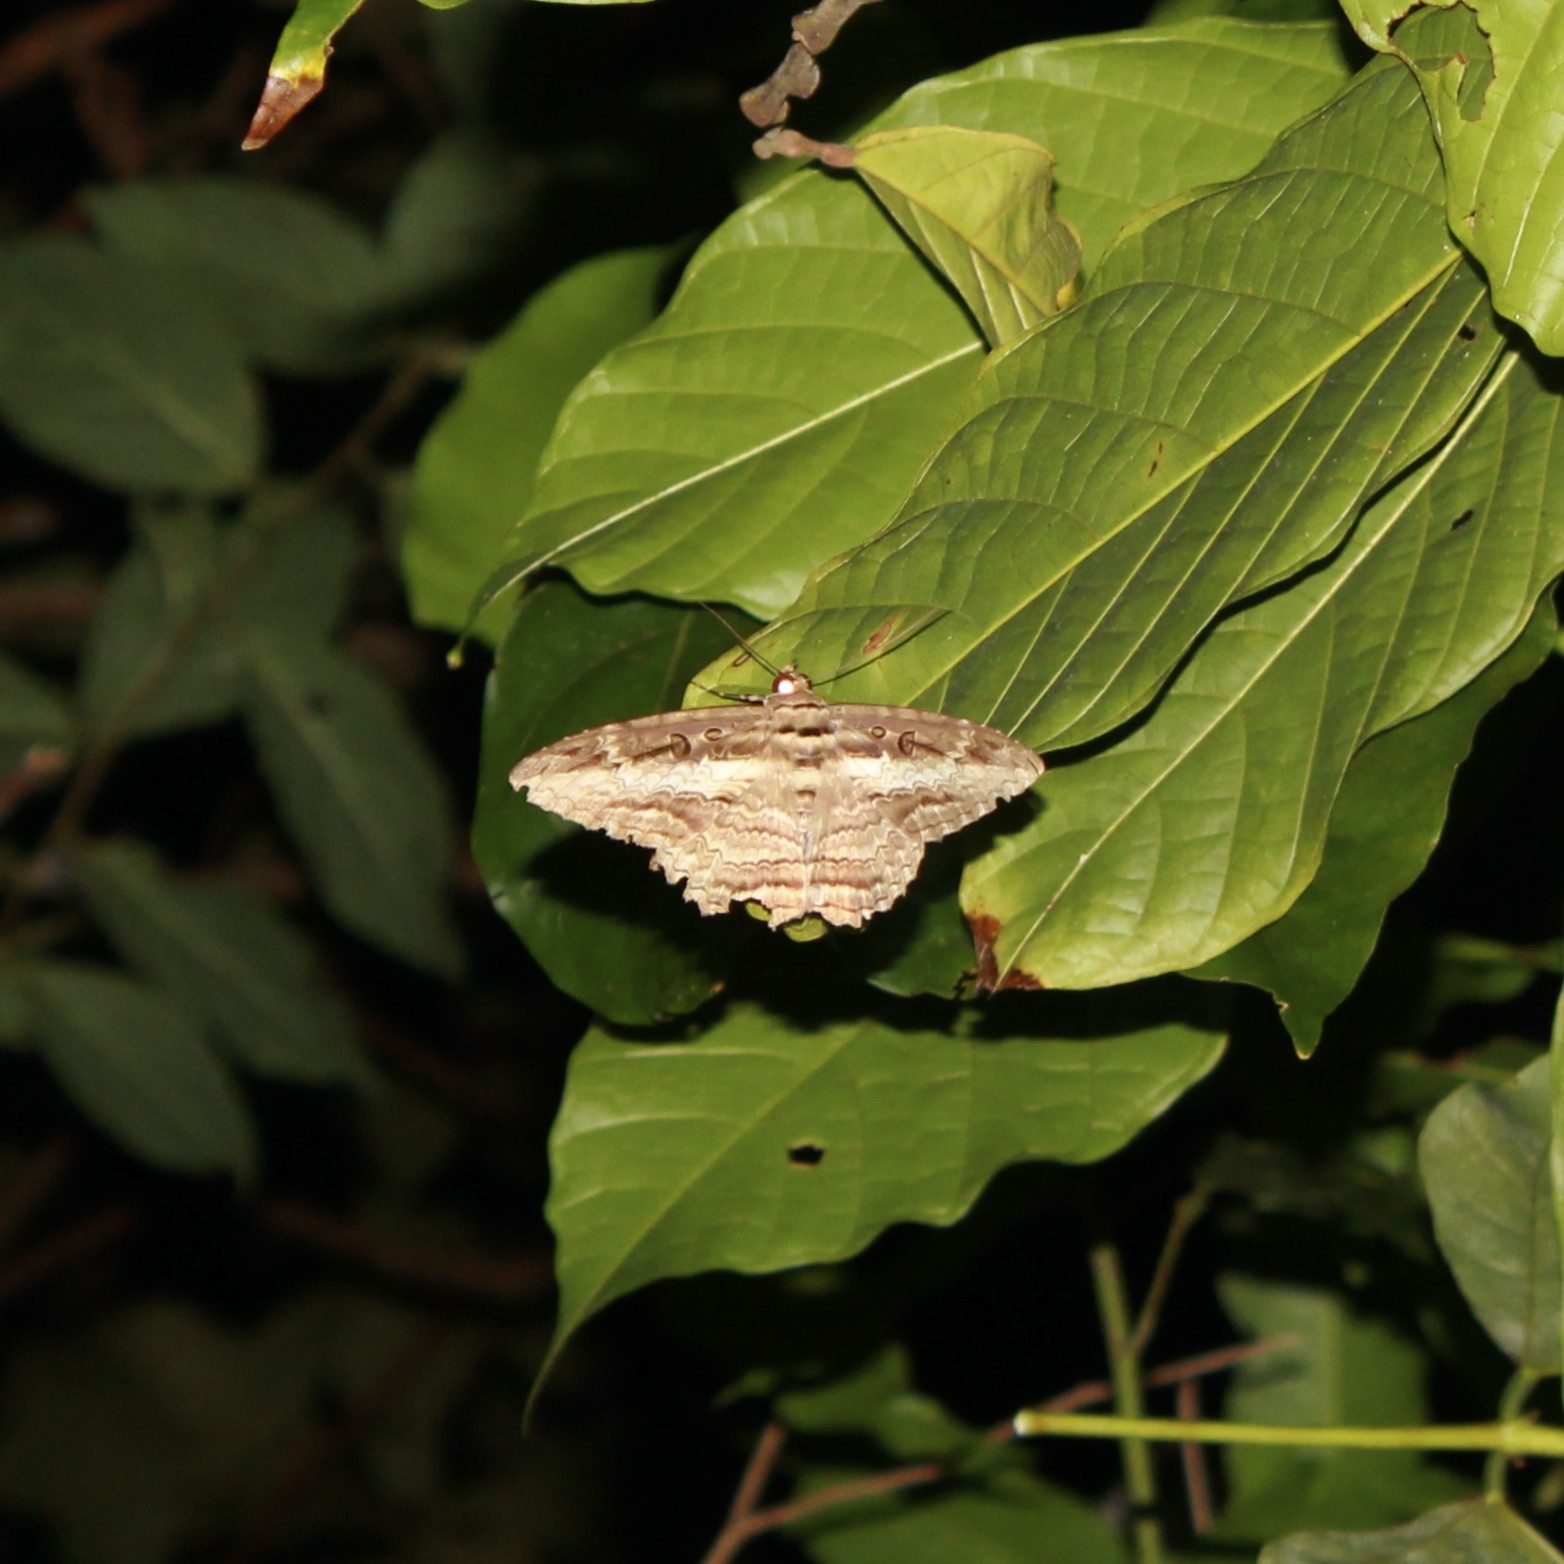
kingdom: Animalia
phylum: Arthropoda
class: Insecta
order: Lepidoptera
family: Erebidae
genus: Feigeria
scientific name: Feigeria buteo
